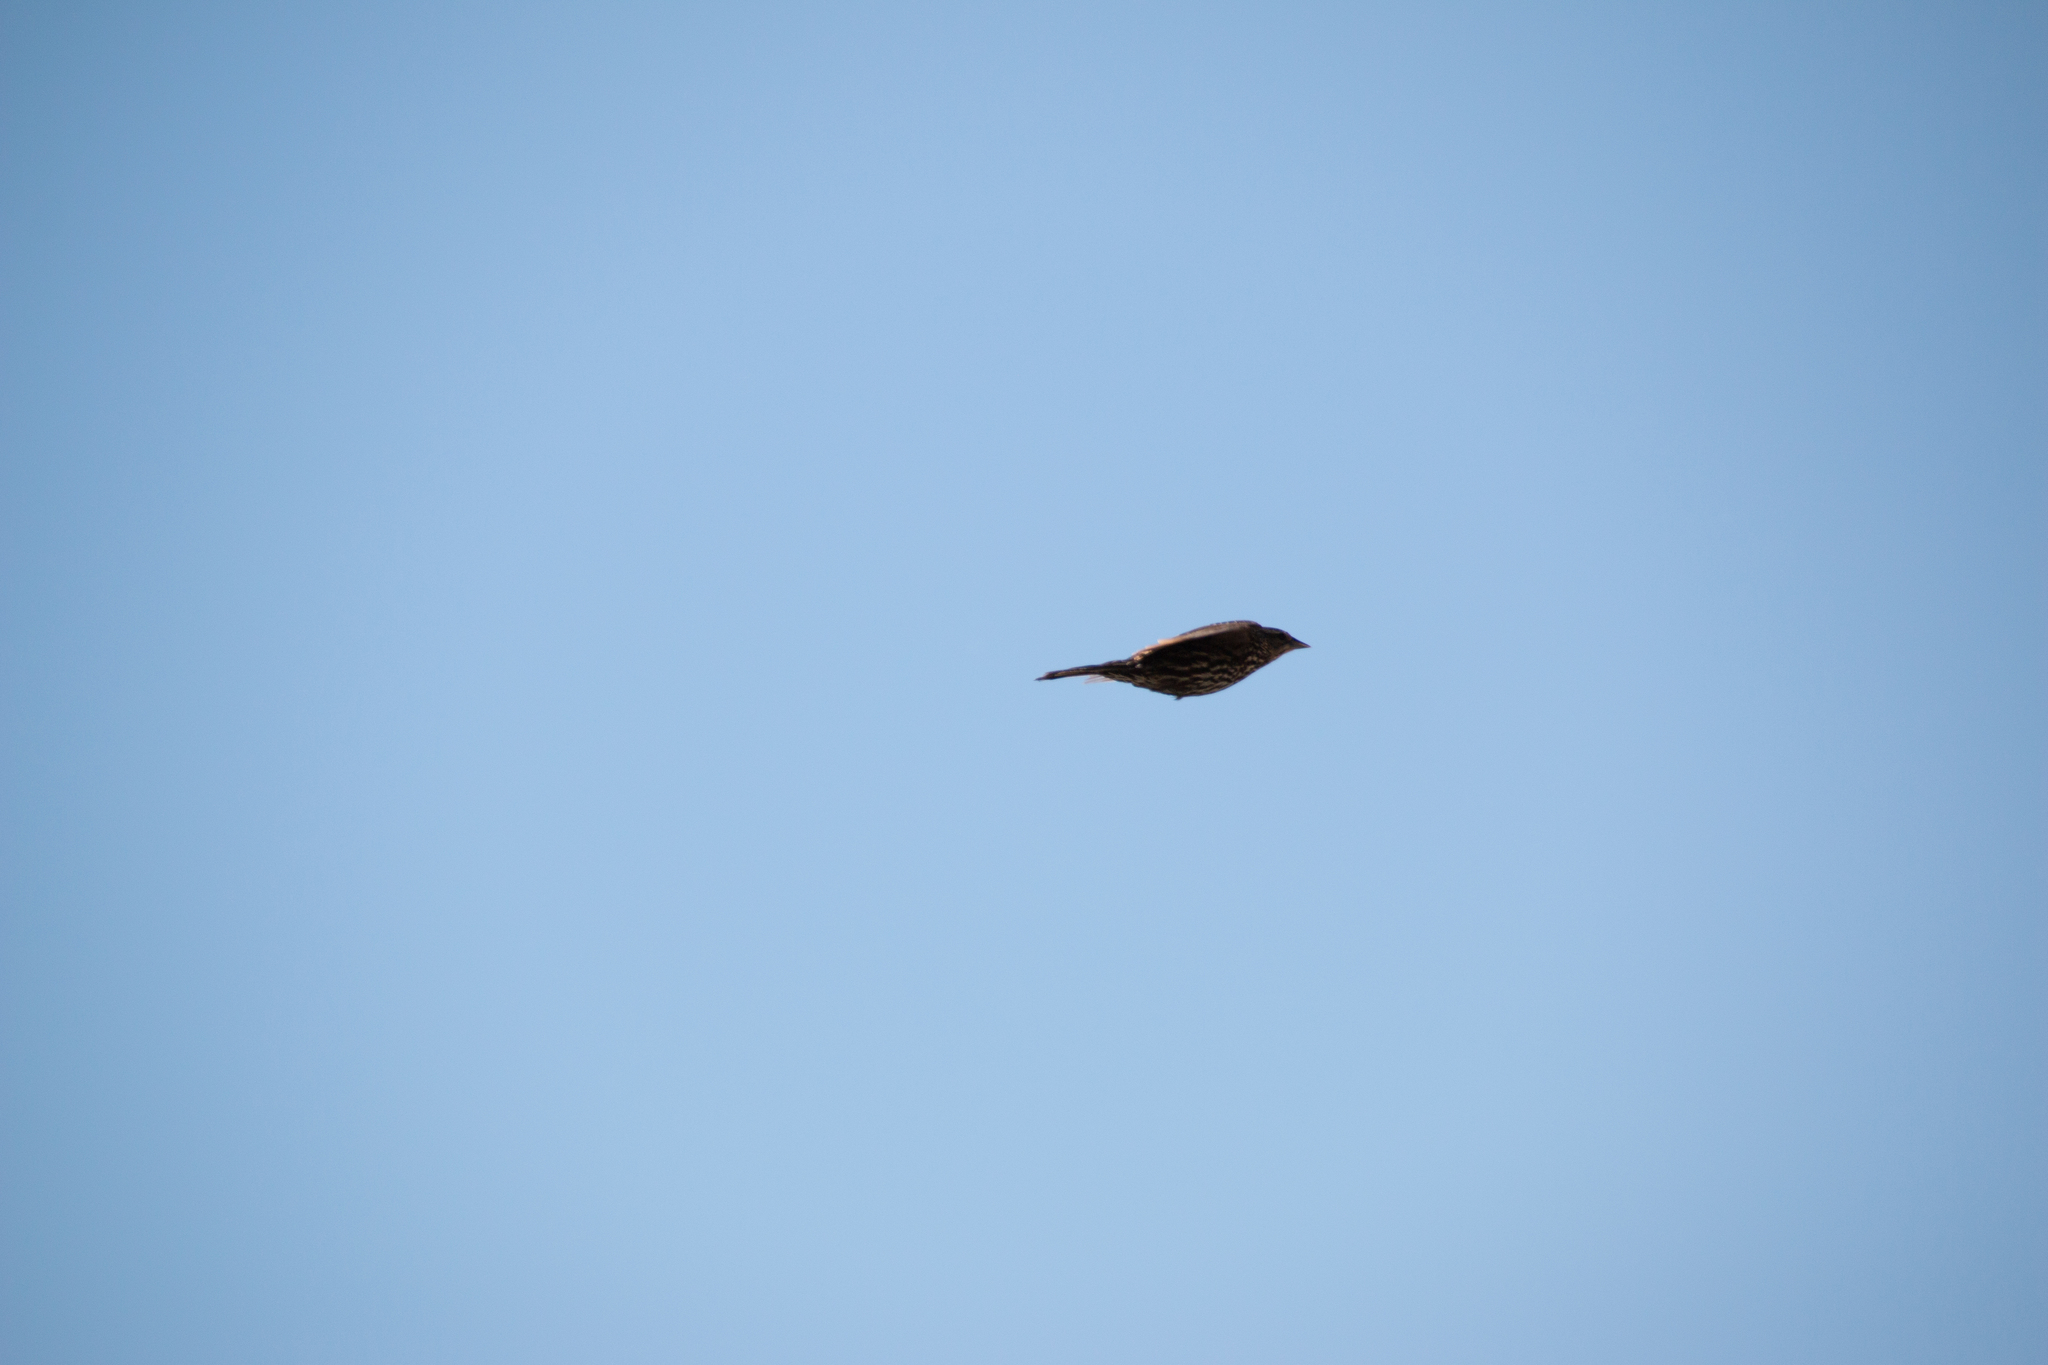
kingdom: Animalia
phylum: Chordata
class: Aves
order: Passeriformes
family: Icteridae
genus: Agelaius
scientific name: Agelaius phoeniceus
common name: Red-winged blackbird
